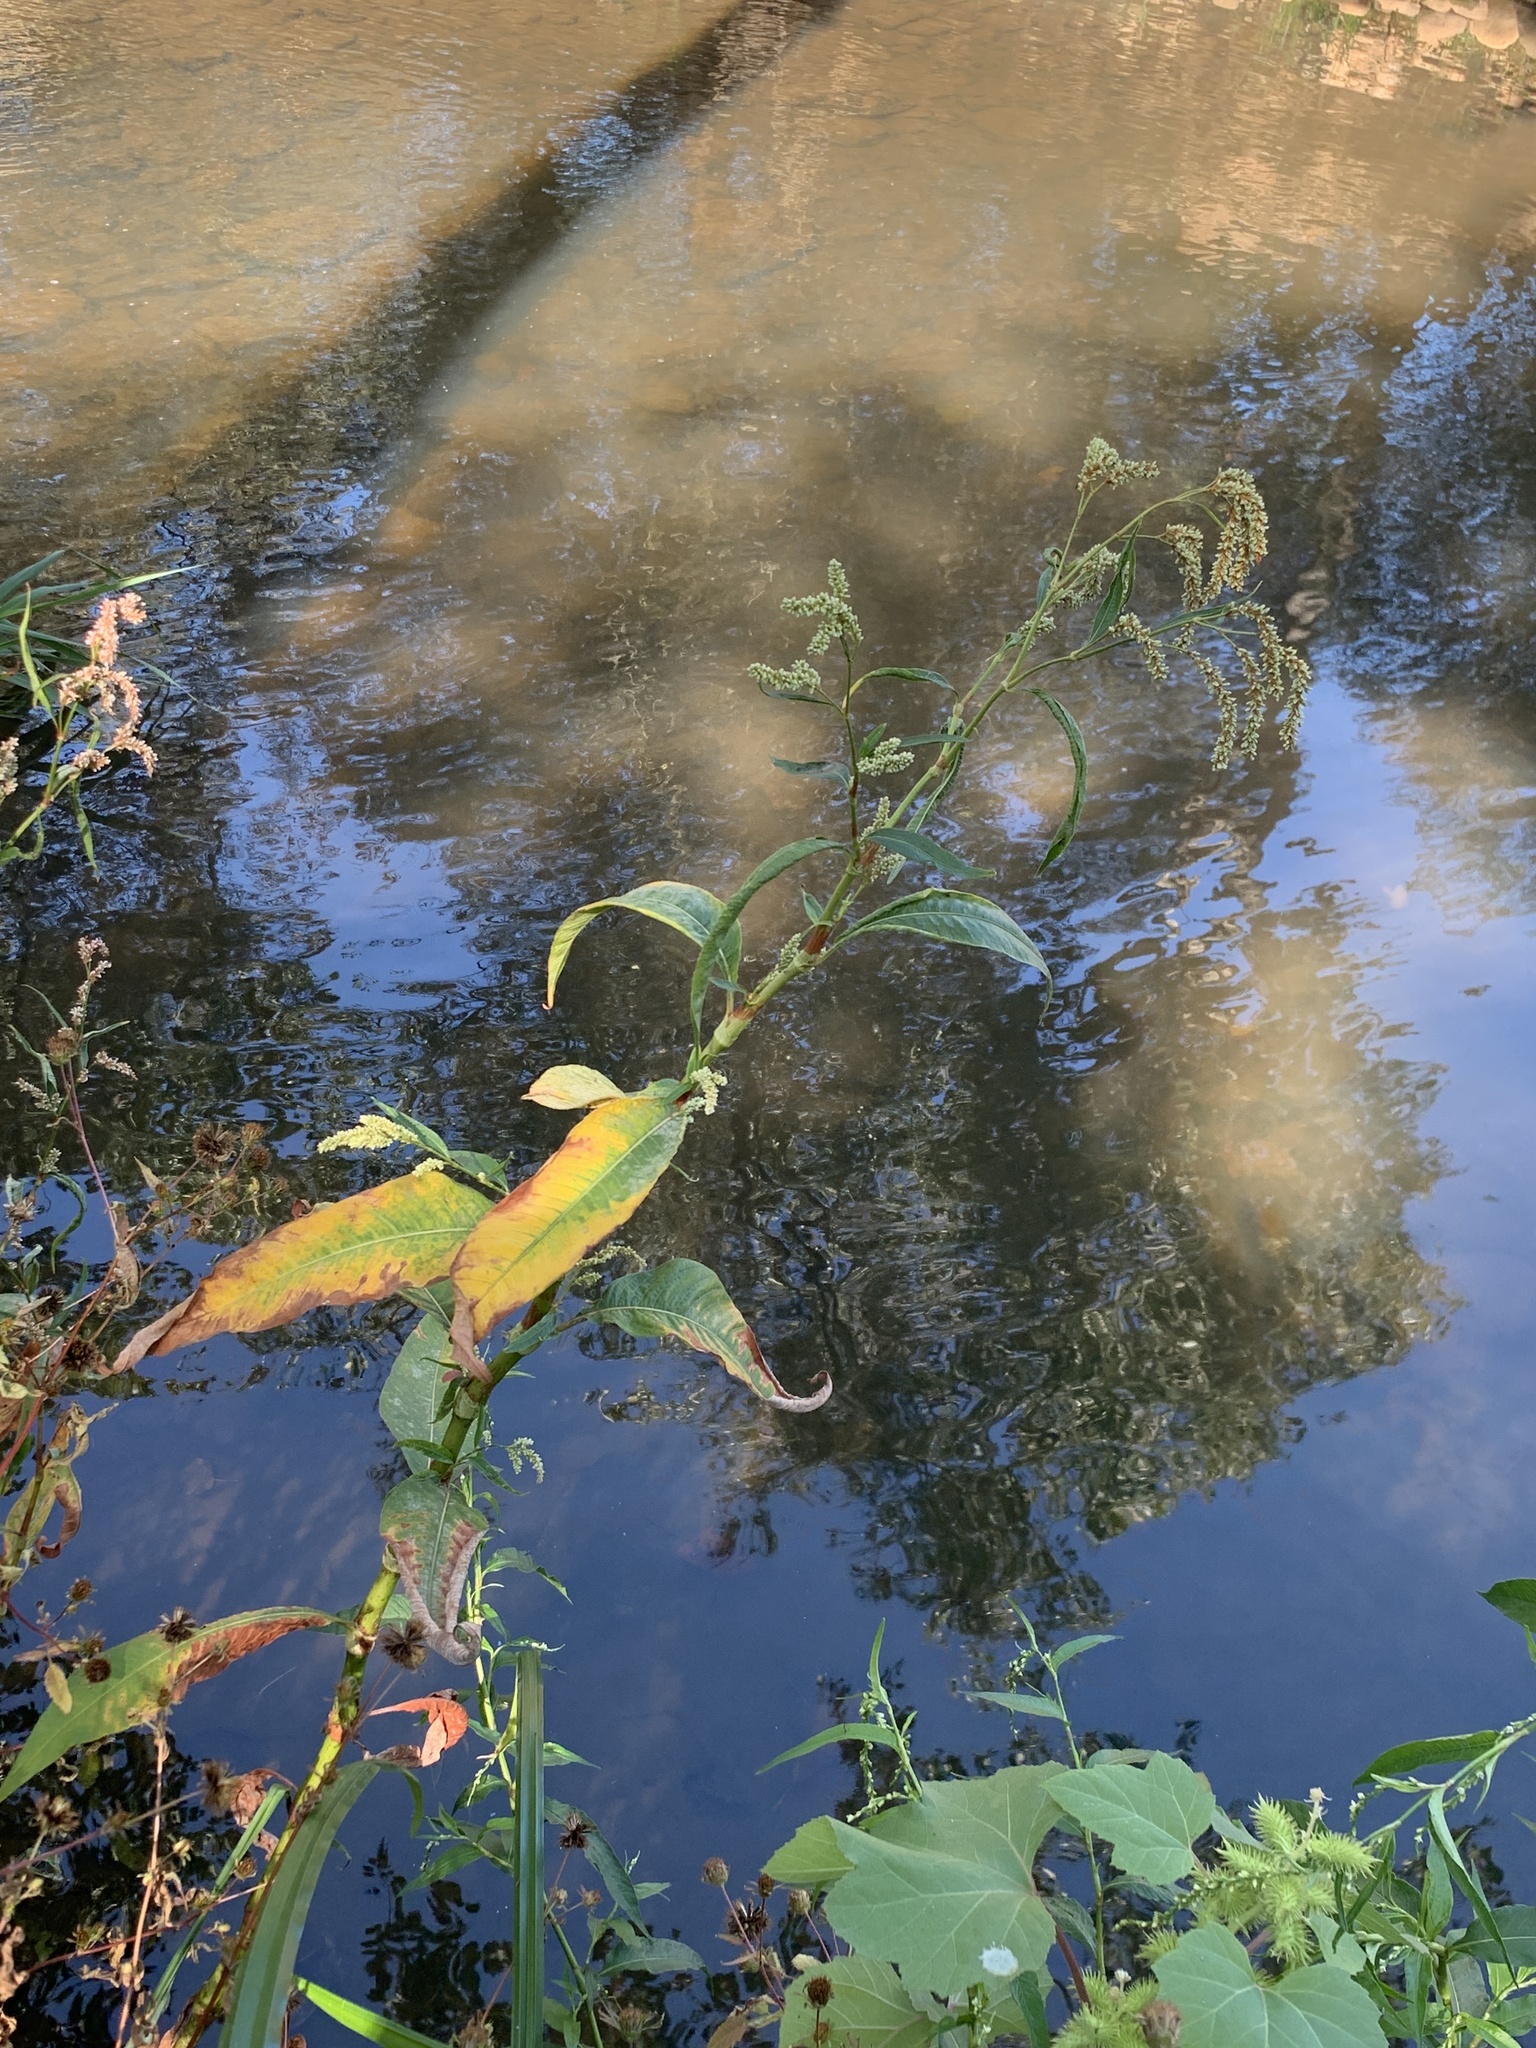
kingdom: Plantae
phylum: Tracheophyta
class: Magnoliopsida
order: Caryophyllales
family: Polygonaceae
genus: Persicaria
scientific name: Persicaria lapathifolia
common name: Curlytop knotweed
